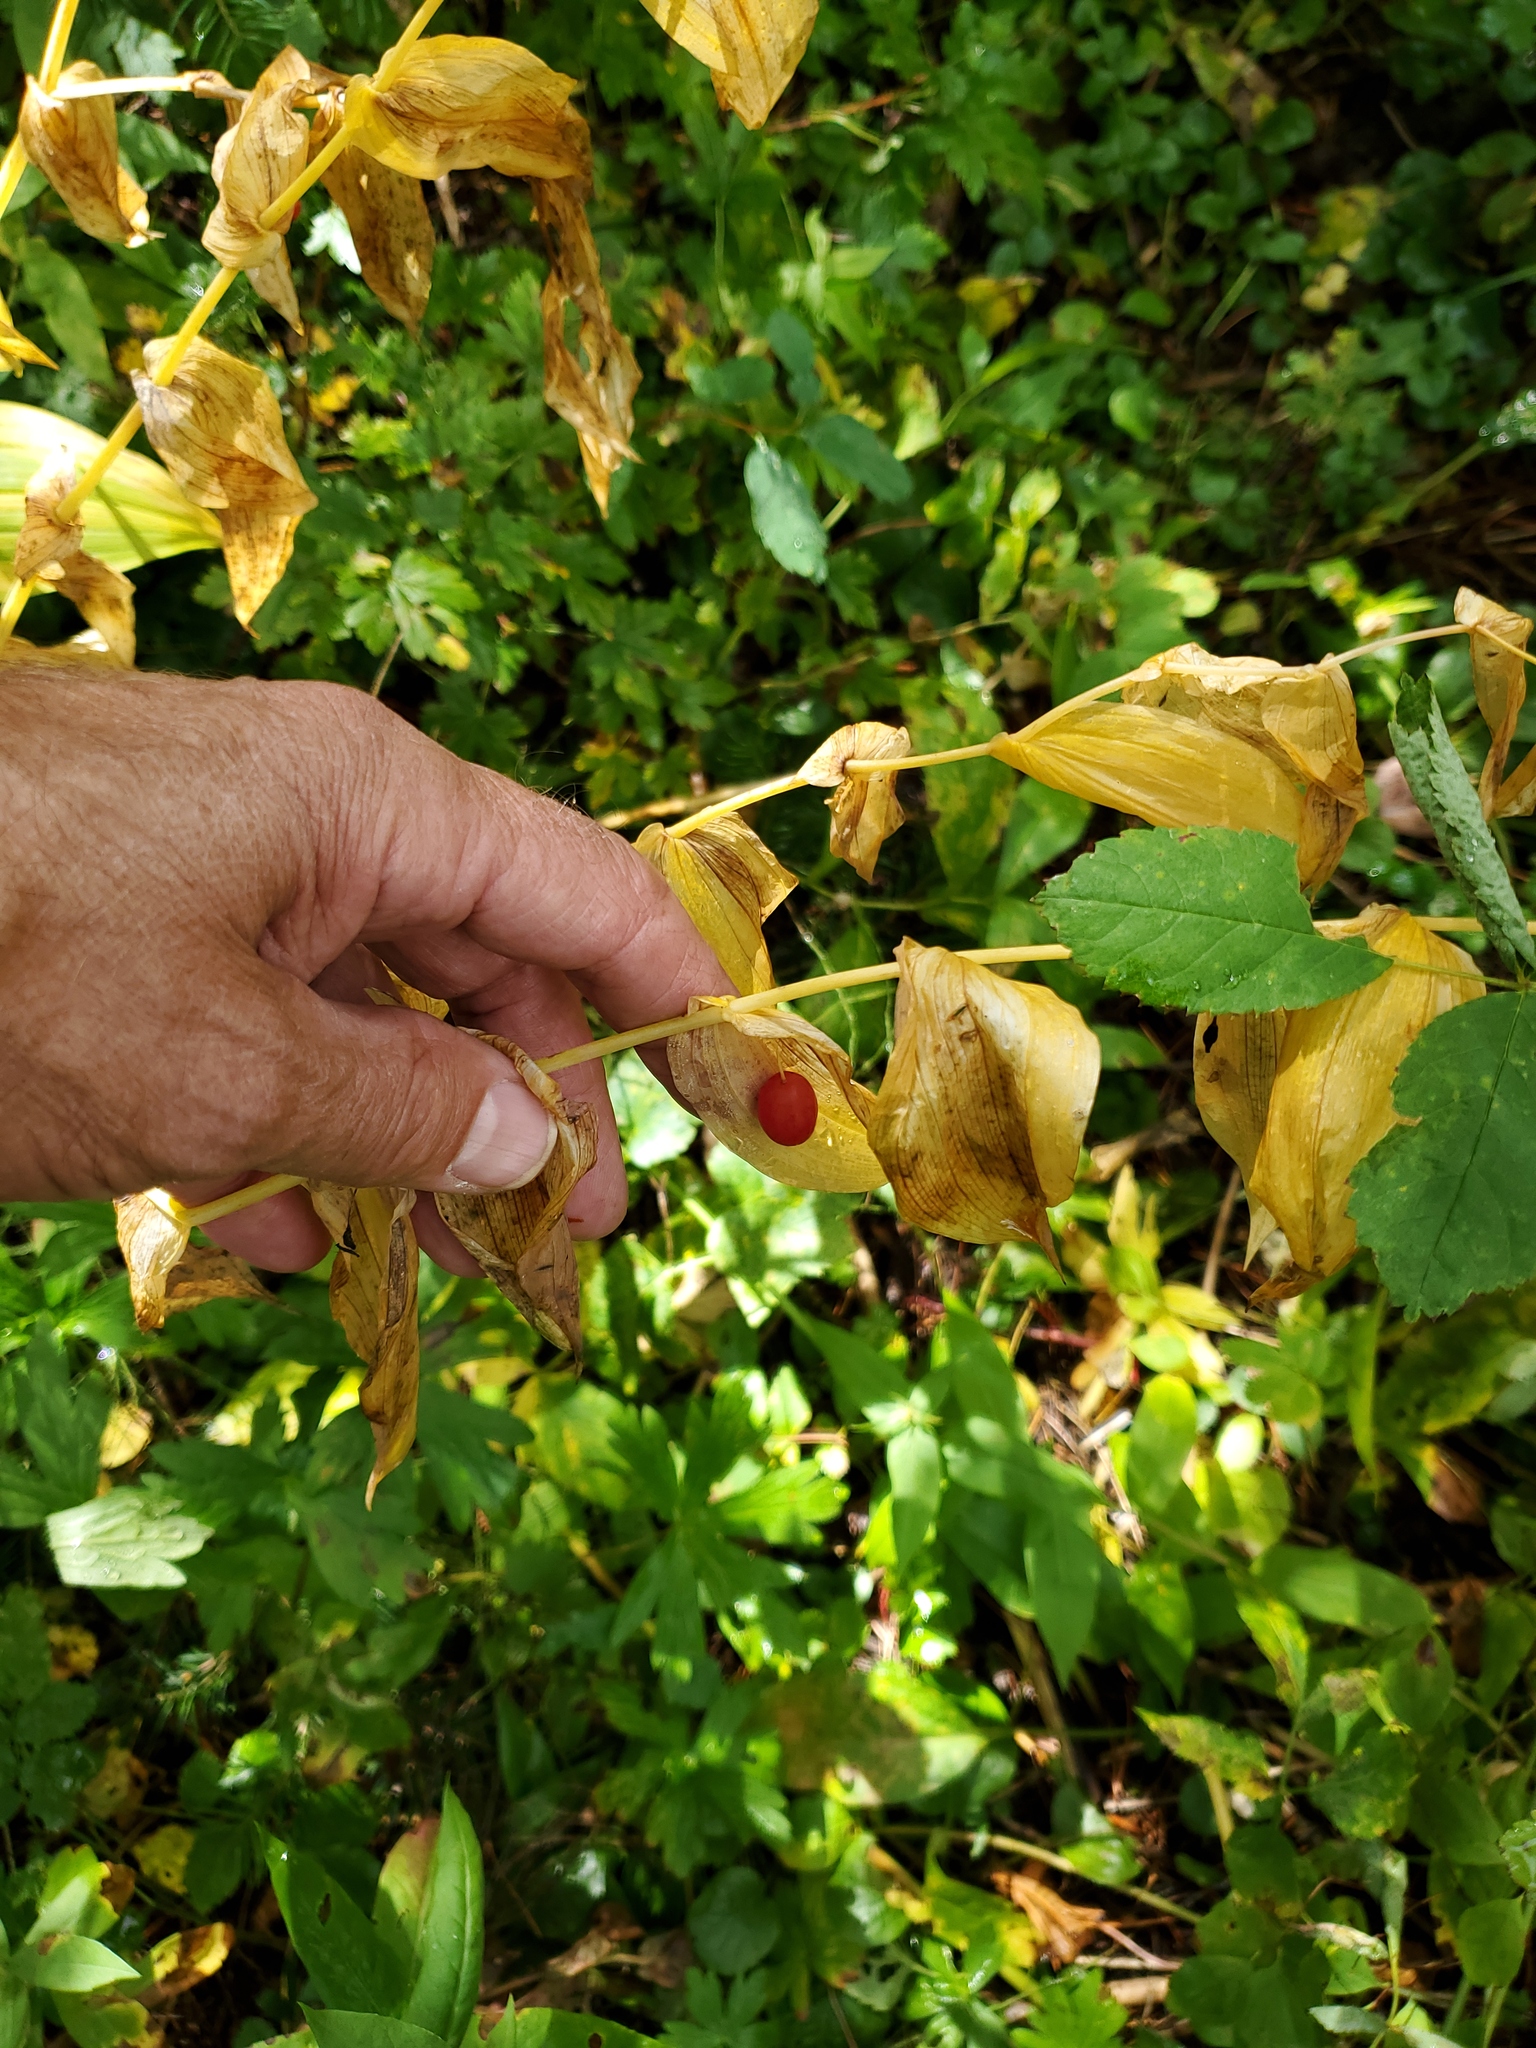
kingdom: Plantae
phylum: Tracheophyta
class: Liliopsida
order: Liliales
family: Liliaceae
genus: Streptopus
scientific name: Streptopus amplexifolius
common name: Clasp twisted stalk
